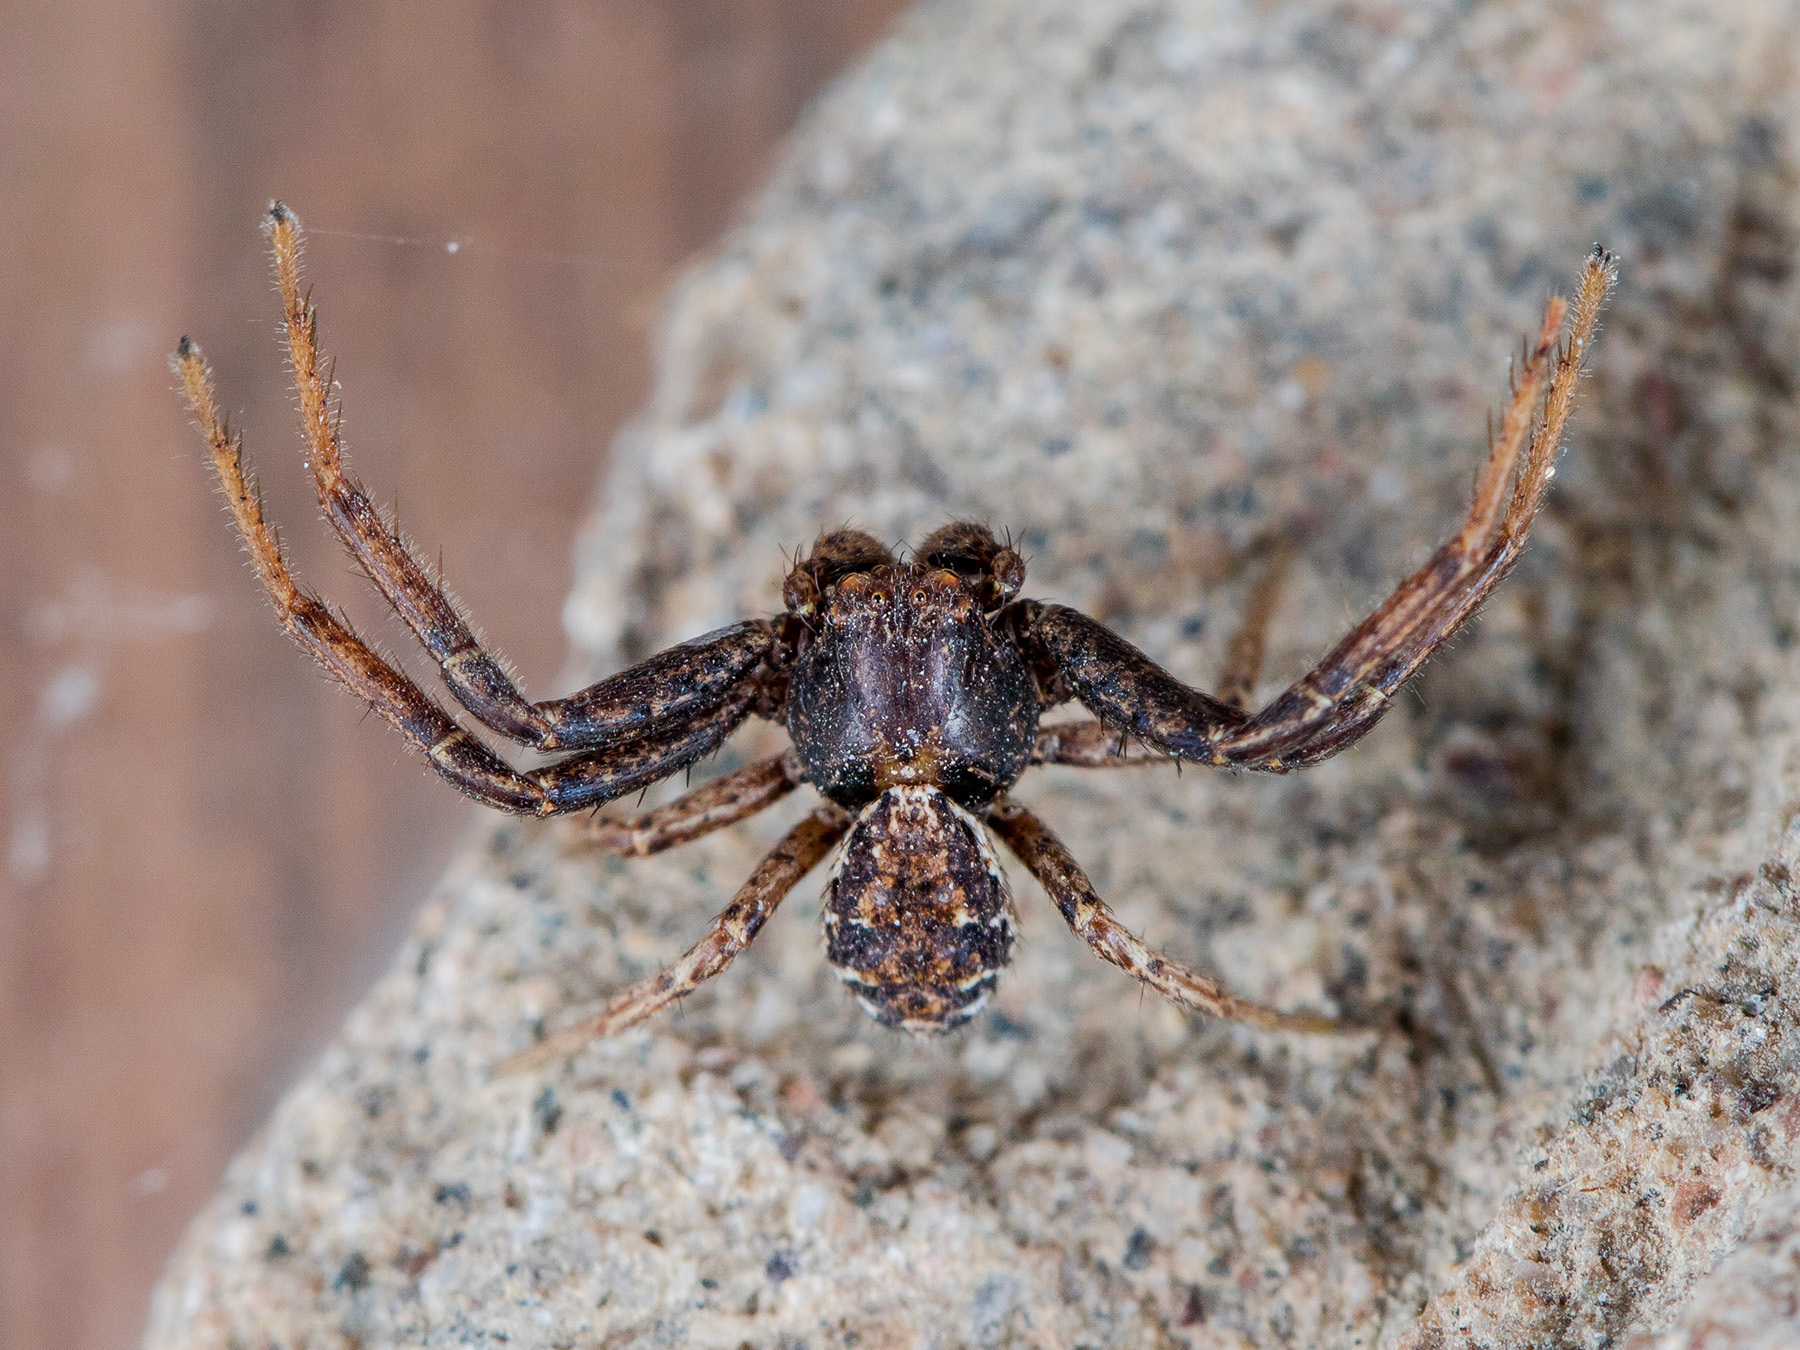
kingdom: Animalia
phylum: Arthropoda
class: Arachnida
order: Araneae
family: Thomisidae
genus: Spiracme
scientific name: Spiracme mongolica
